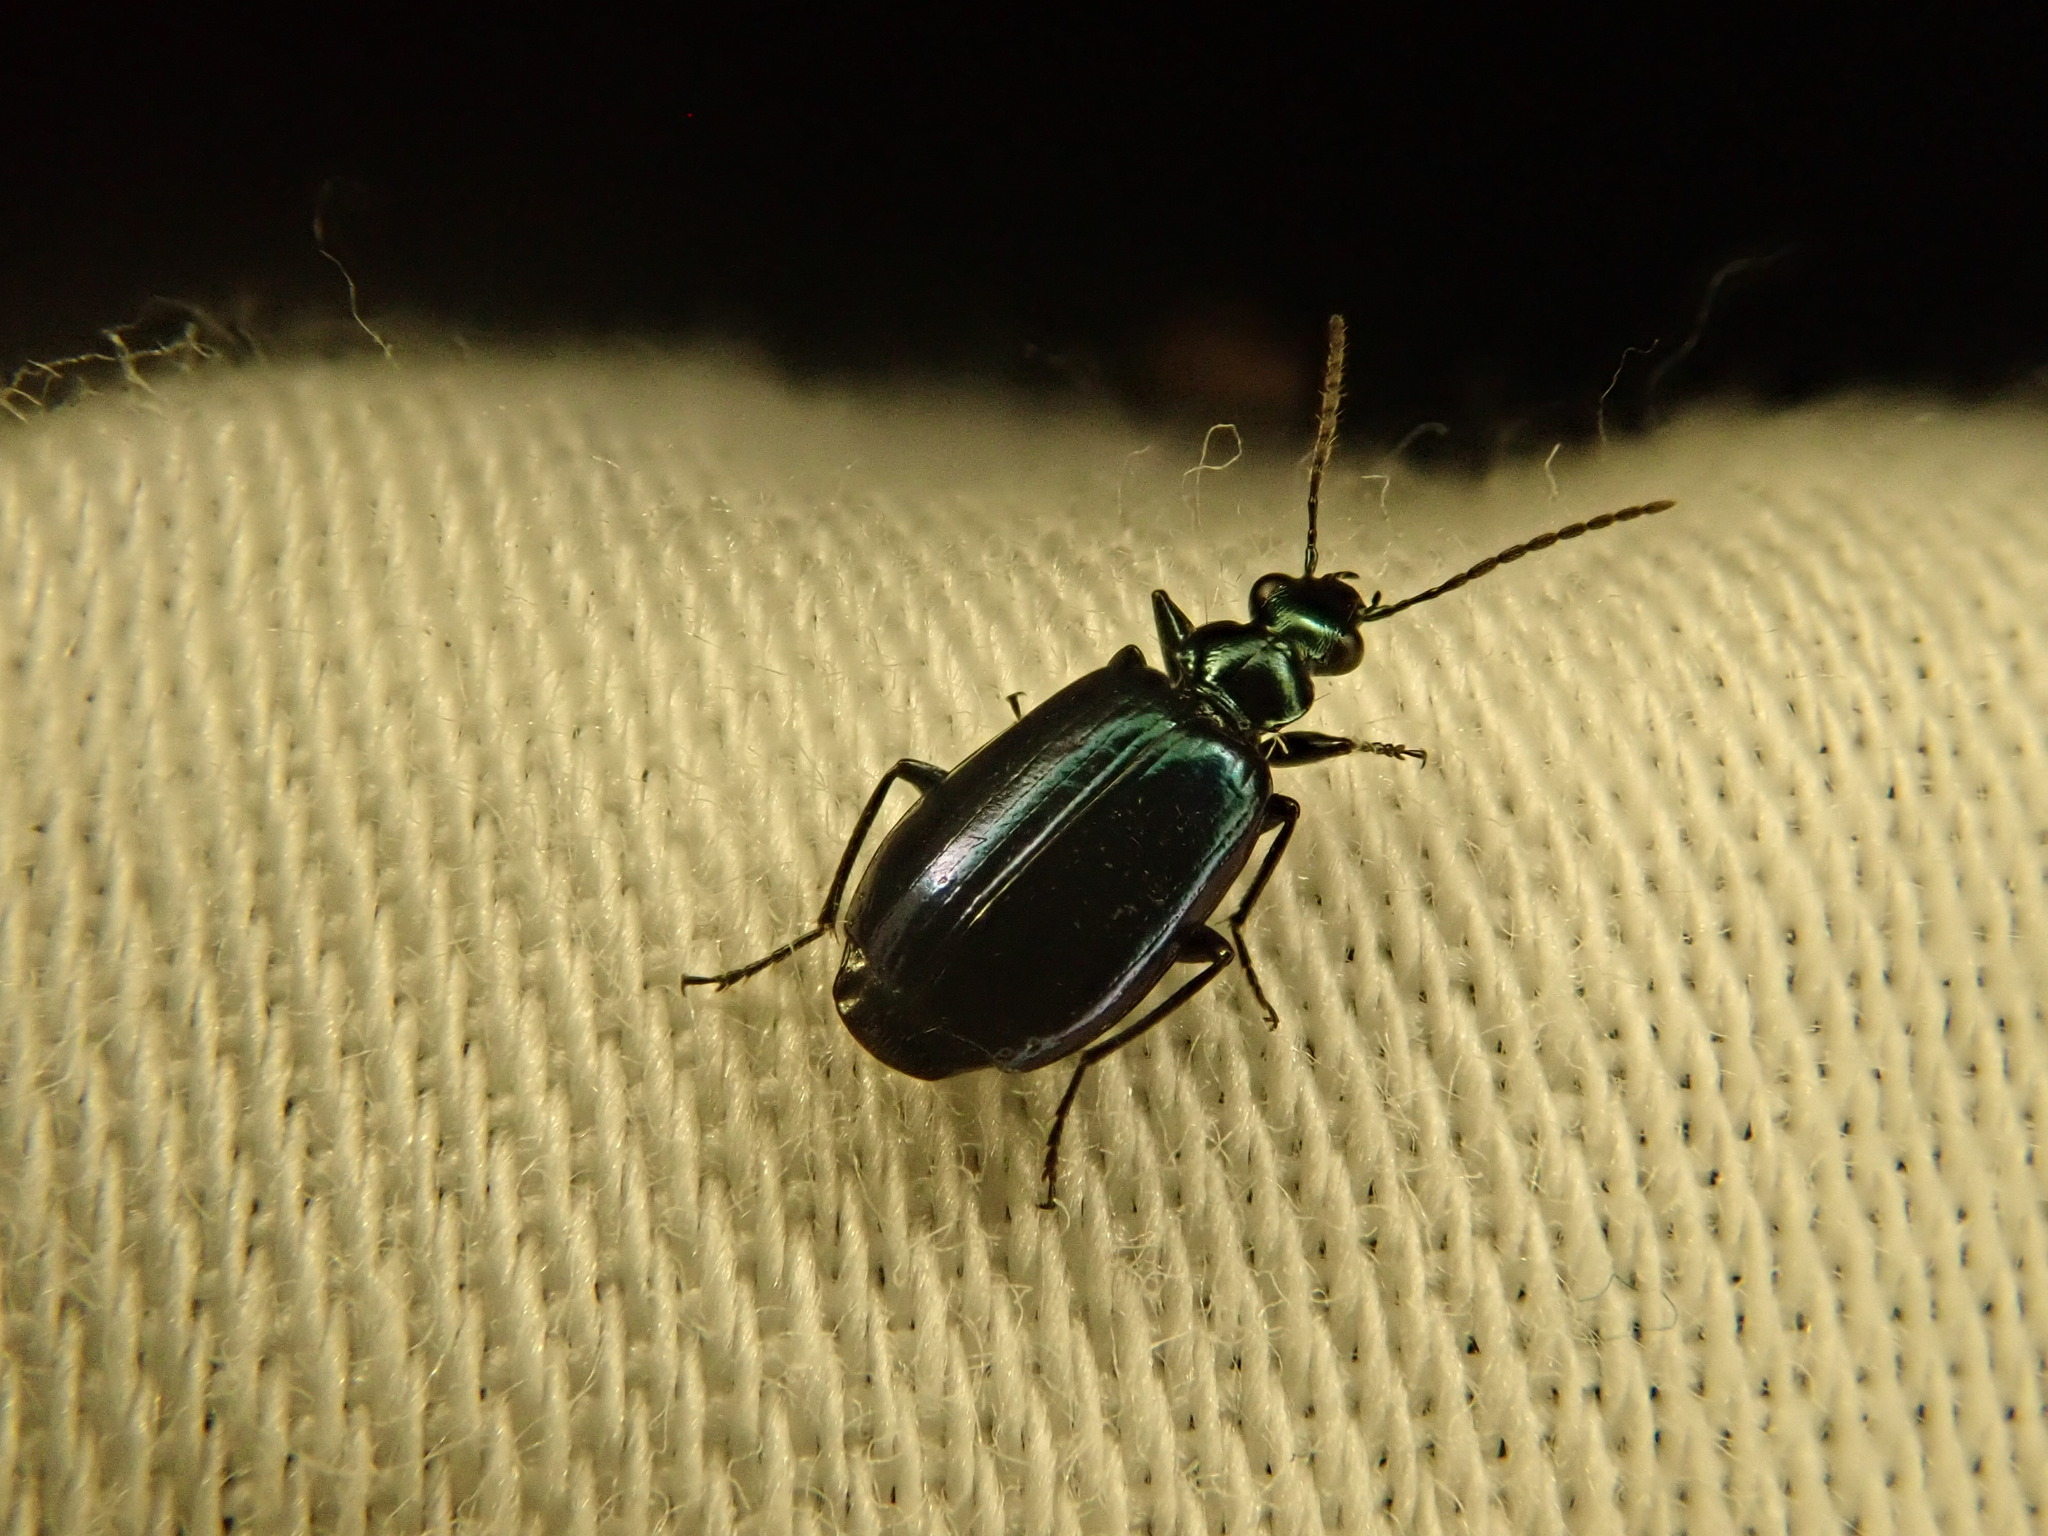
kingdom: Animalia
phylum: Arthropoda
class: Insecta
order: Coleoptera
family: Carabidae
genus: Lebia
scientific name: Lebia viridis
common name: Flower lebia beetle
